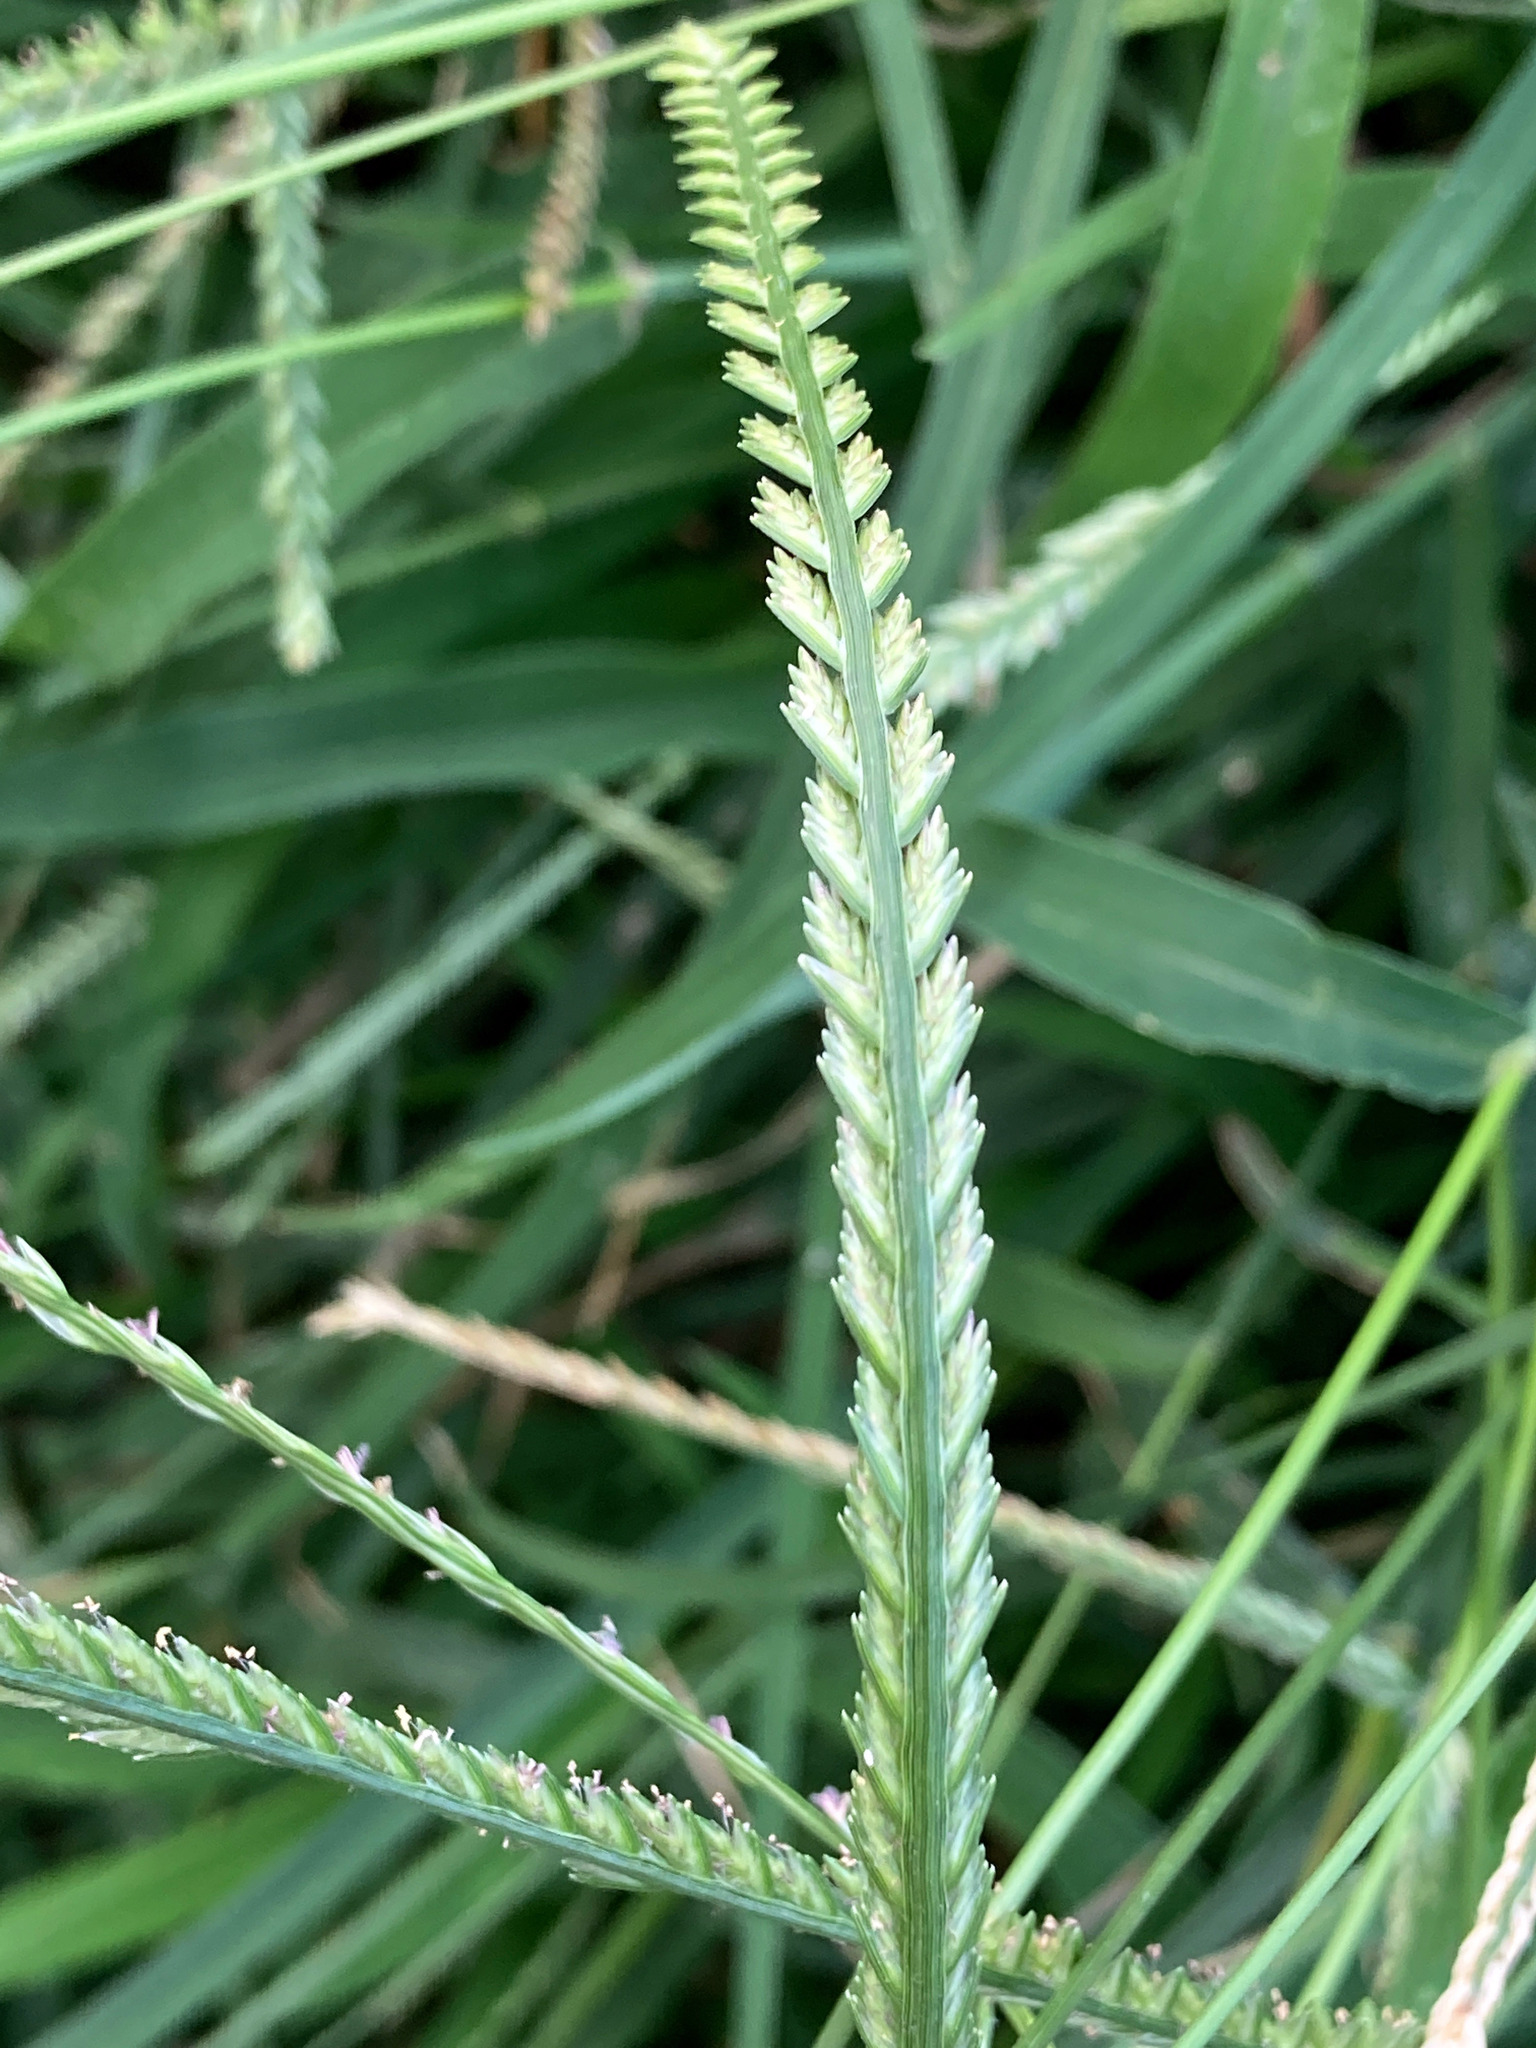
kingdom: Plantae
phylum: Tracheophyta
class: Liliopsida
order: Poales
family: Poaceae
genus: Eleusine
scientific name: Eleusine indica
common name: Yard-grass
